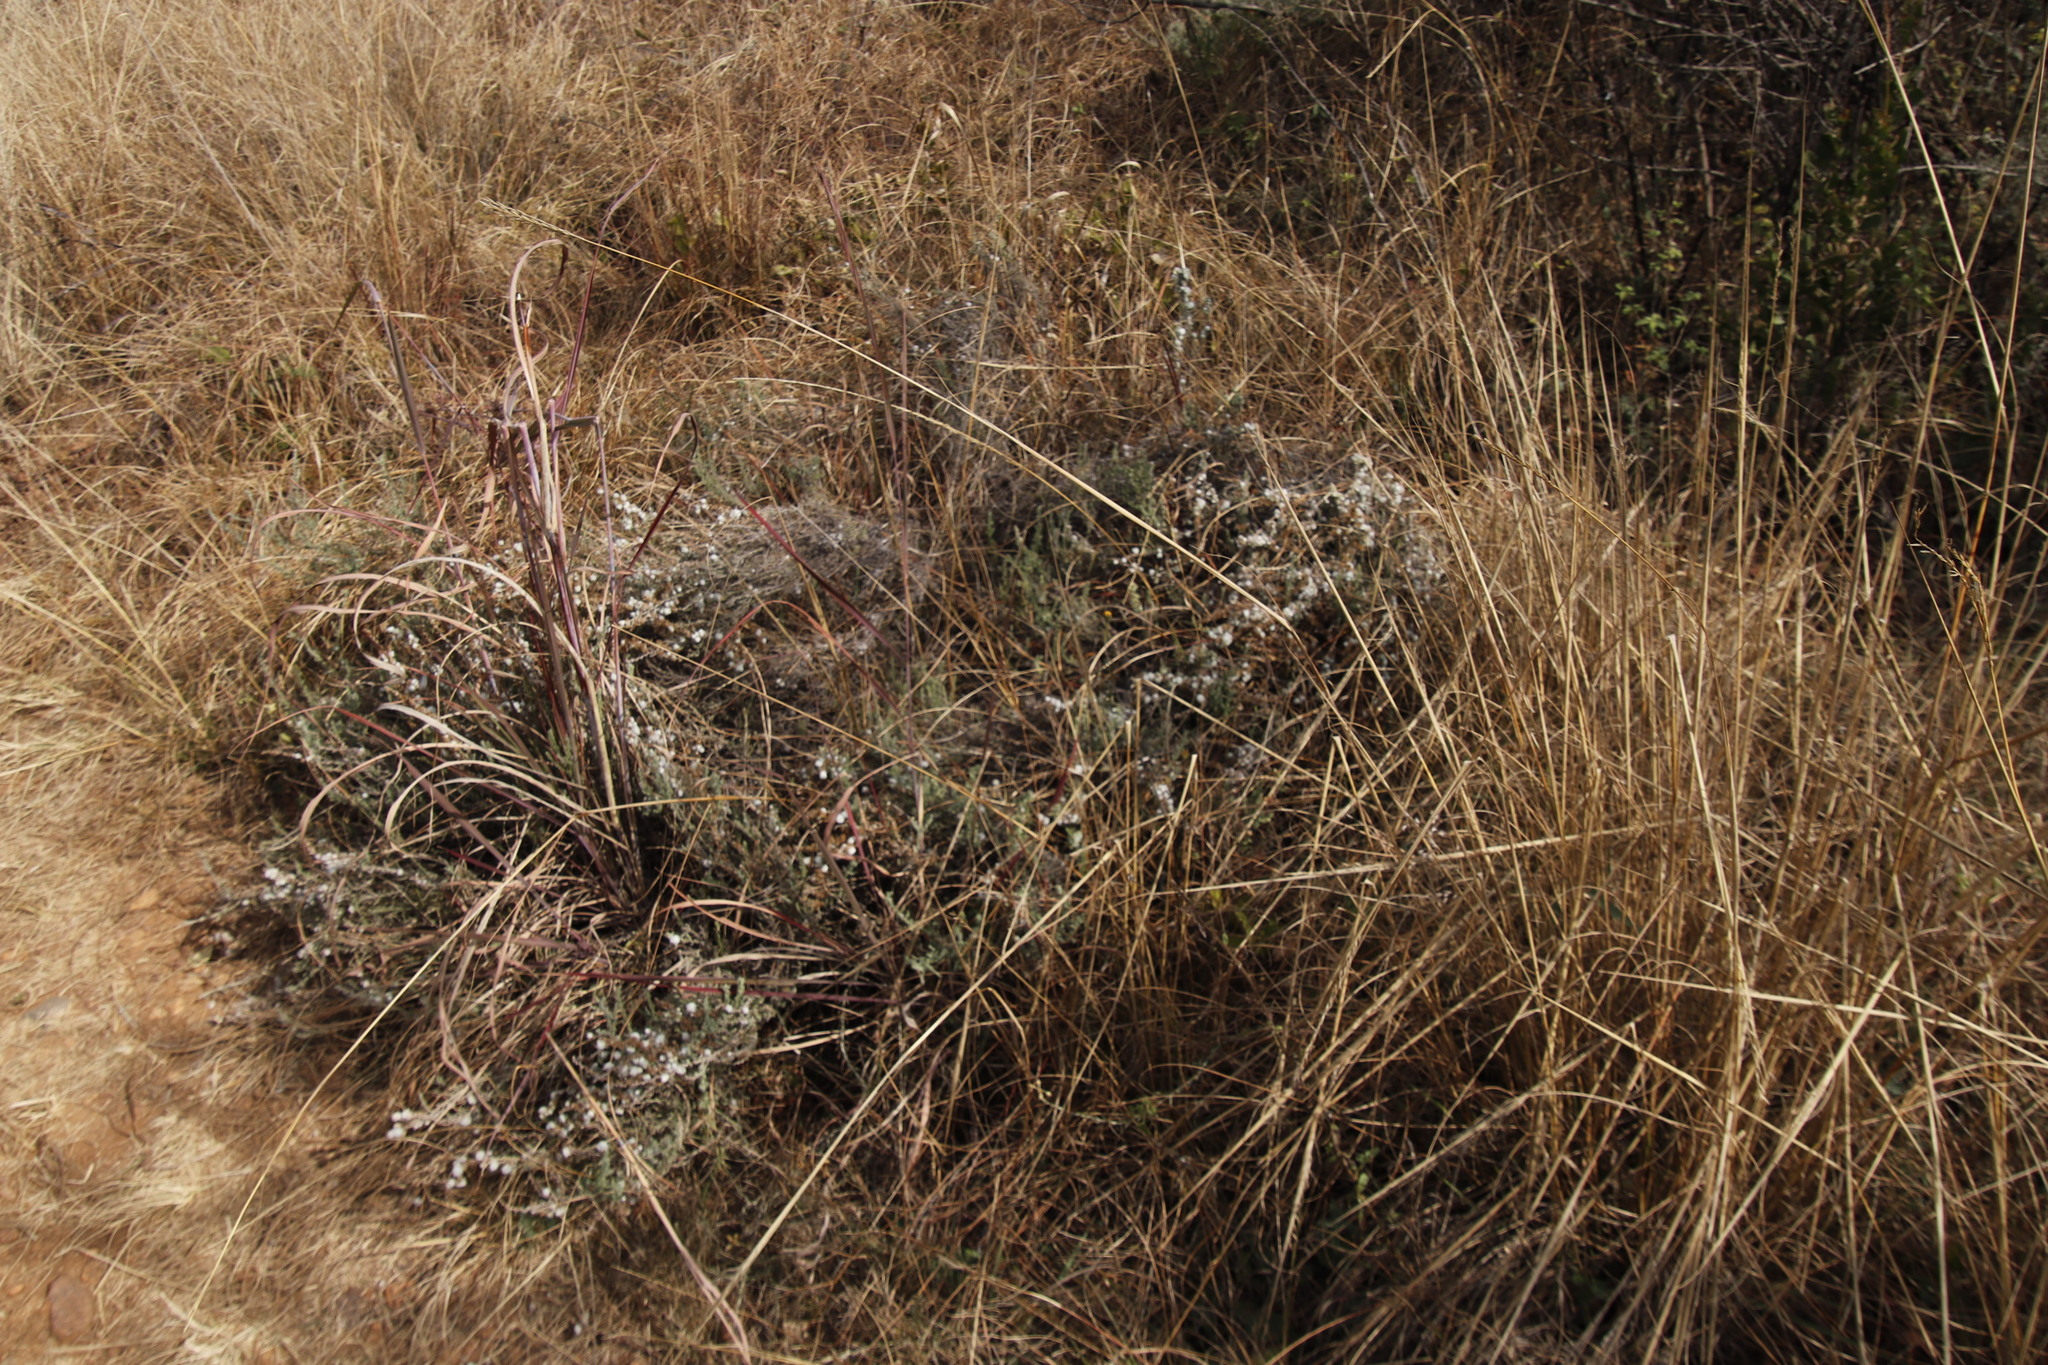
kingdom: Plantae
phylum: Tracheophyta
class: Magnoliopsida
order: Asterales
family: Asteraceae
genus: Seriphium
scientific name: Seriphium
